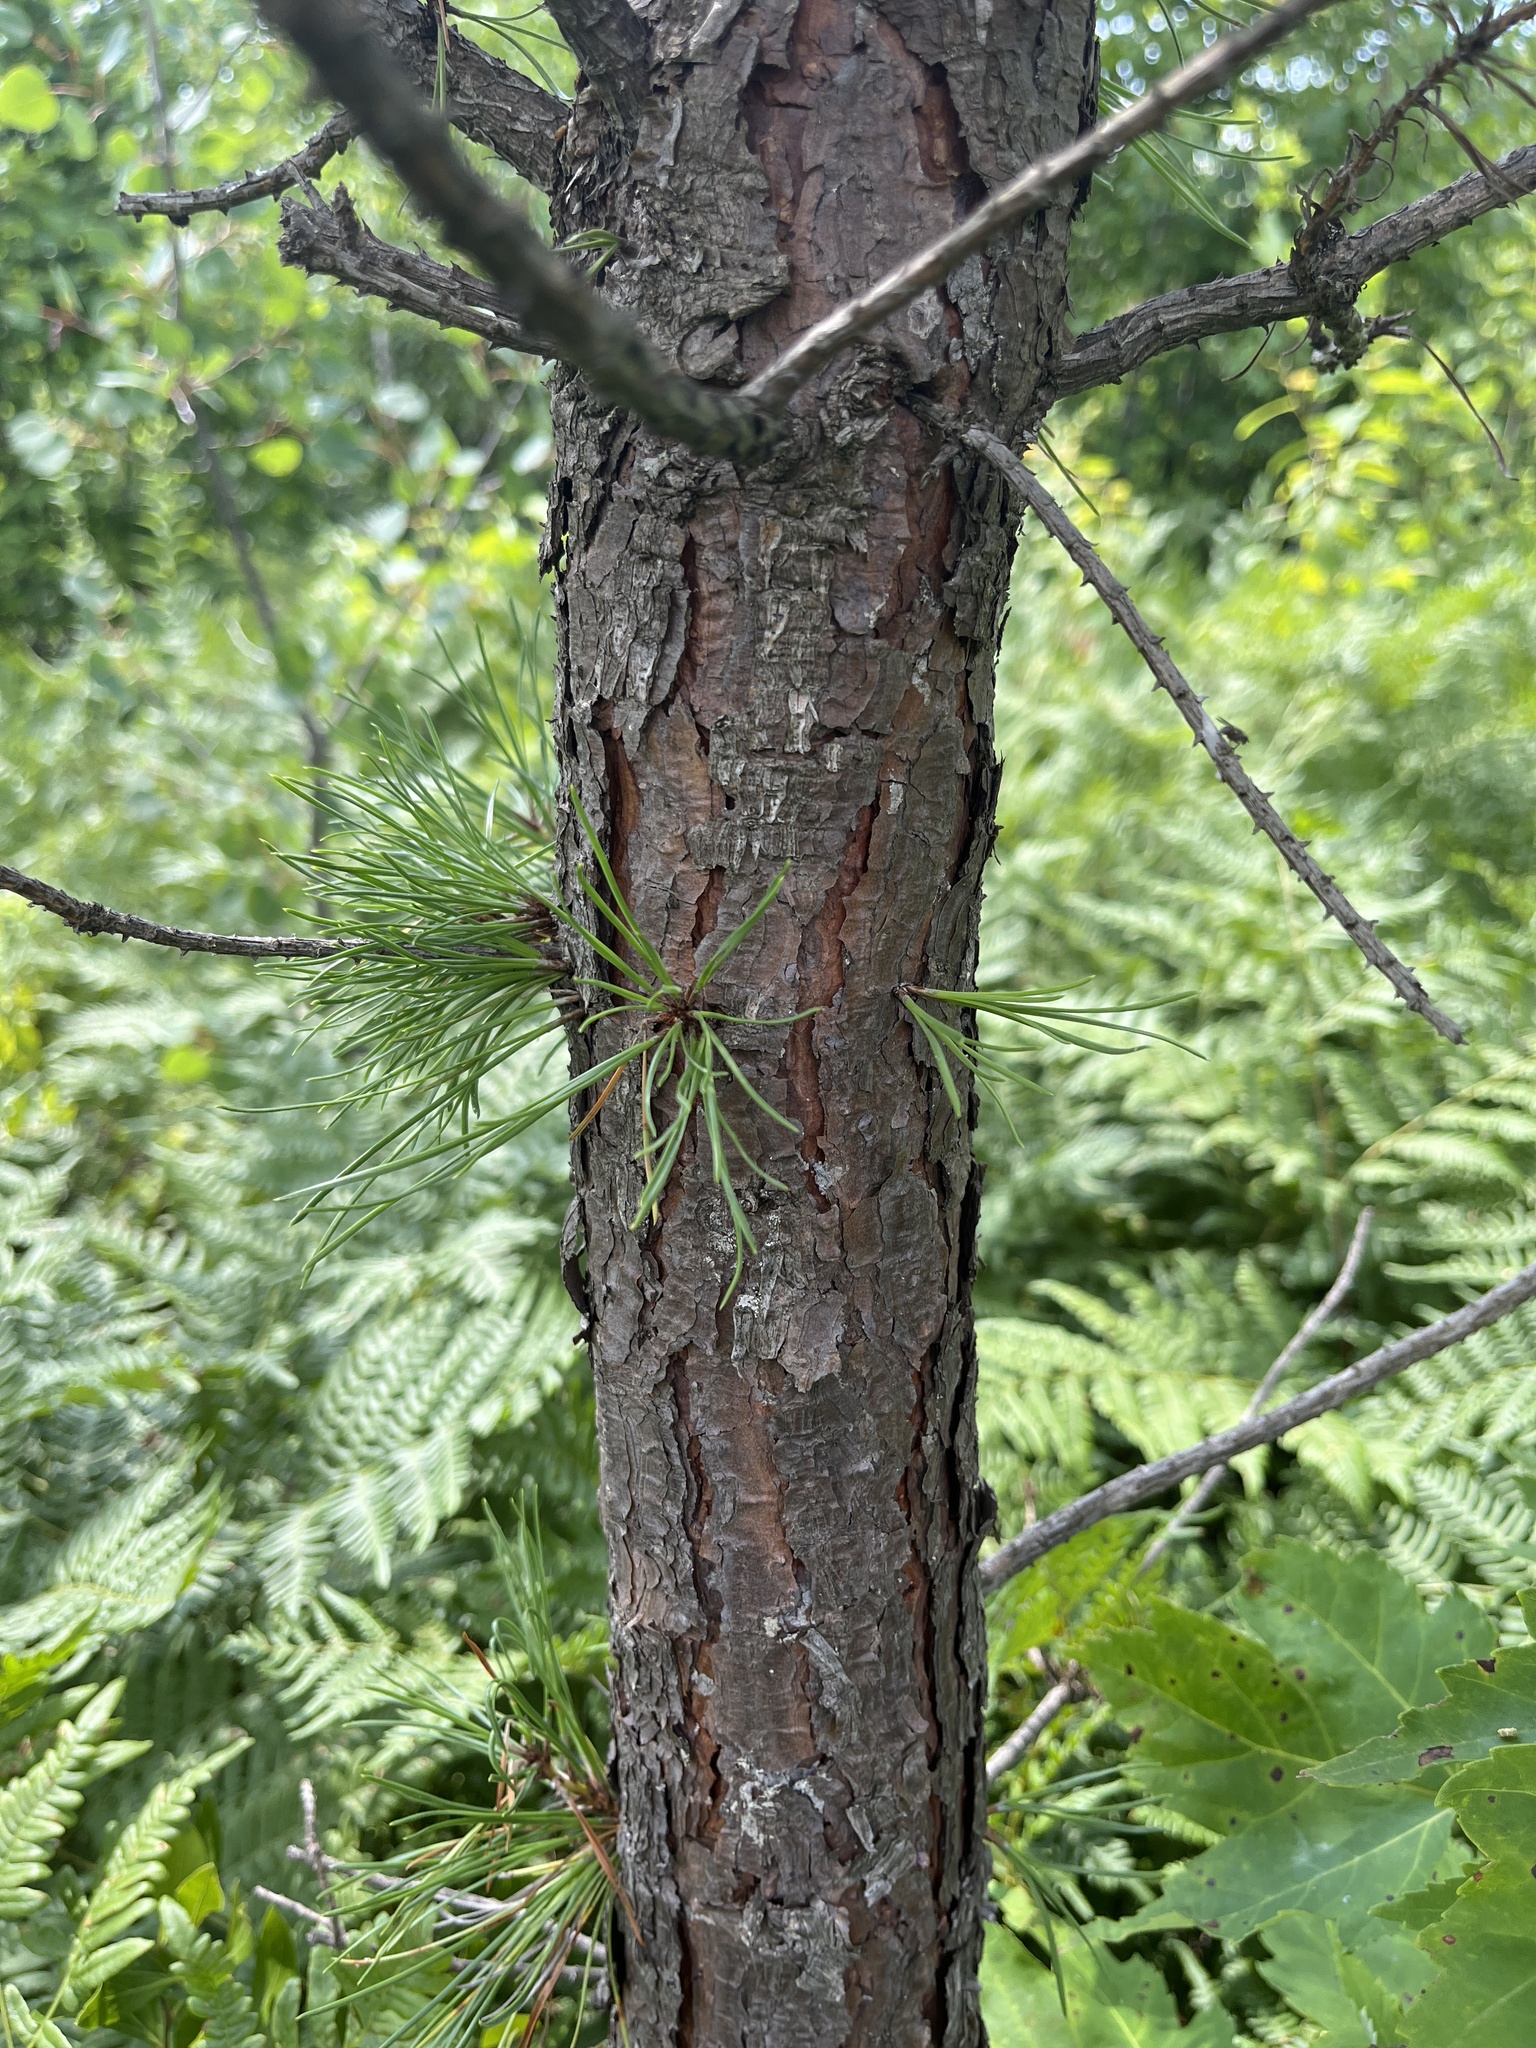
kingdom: Plantae
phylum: Tracheophyta
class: Pinopsida
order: Pinales
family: Pinaceae
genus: Pinus
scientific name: Pinus rigida
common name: Pitch pine
